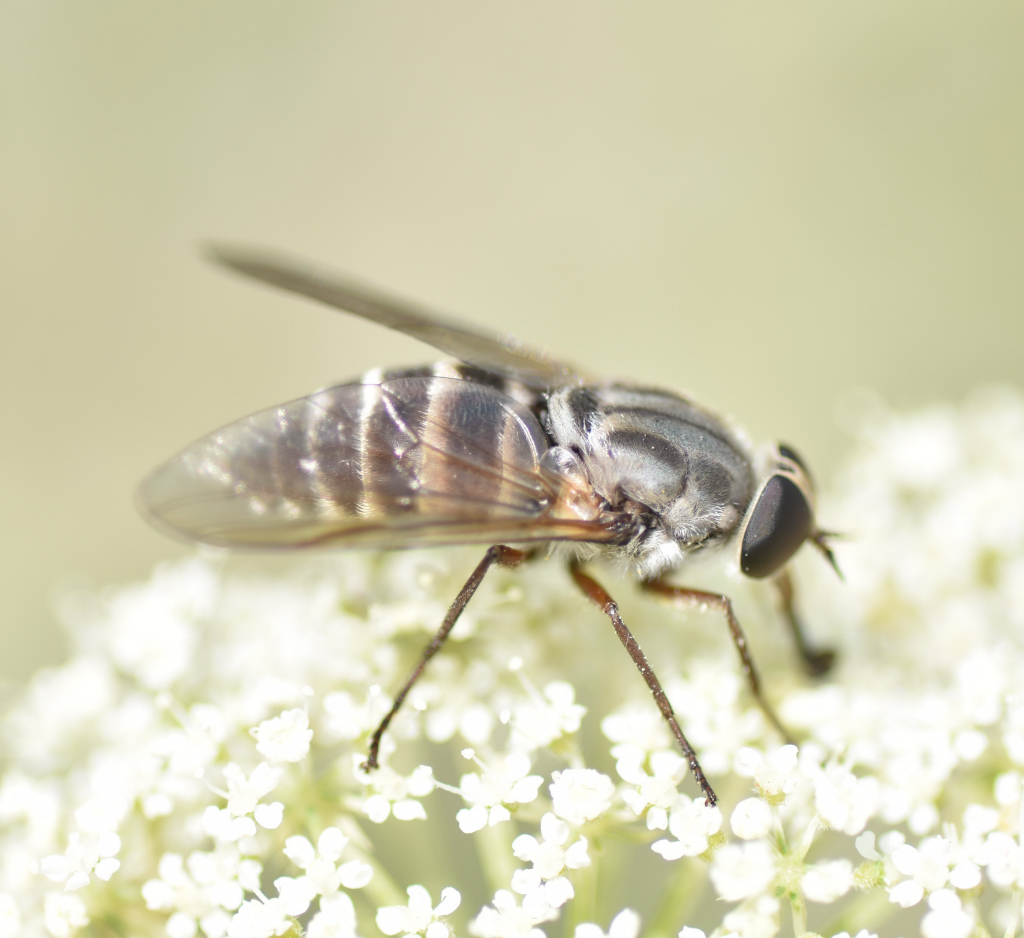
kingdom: Animalia
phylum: Arthropoda
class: Insecta
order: Diptera
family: Tabanidae
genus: Stonemyia
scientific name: Stonemyia rasa
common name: Shaved horse fly
